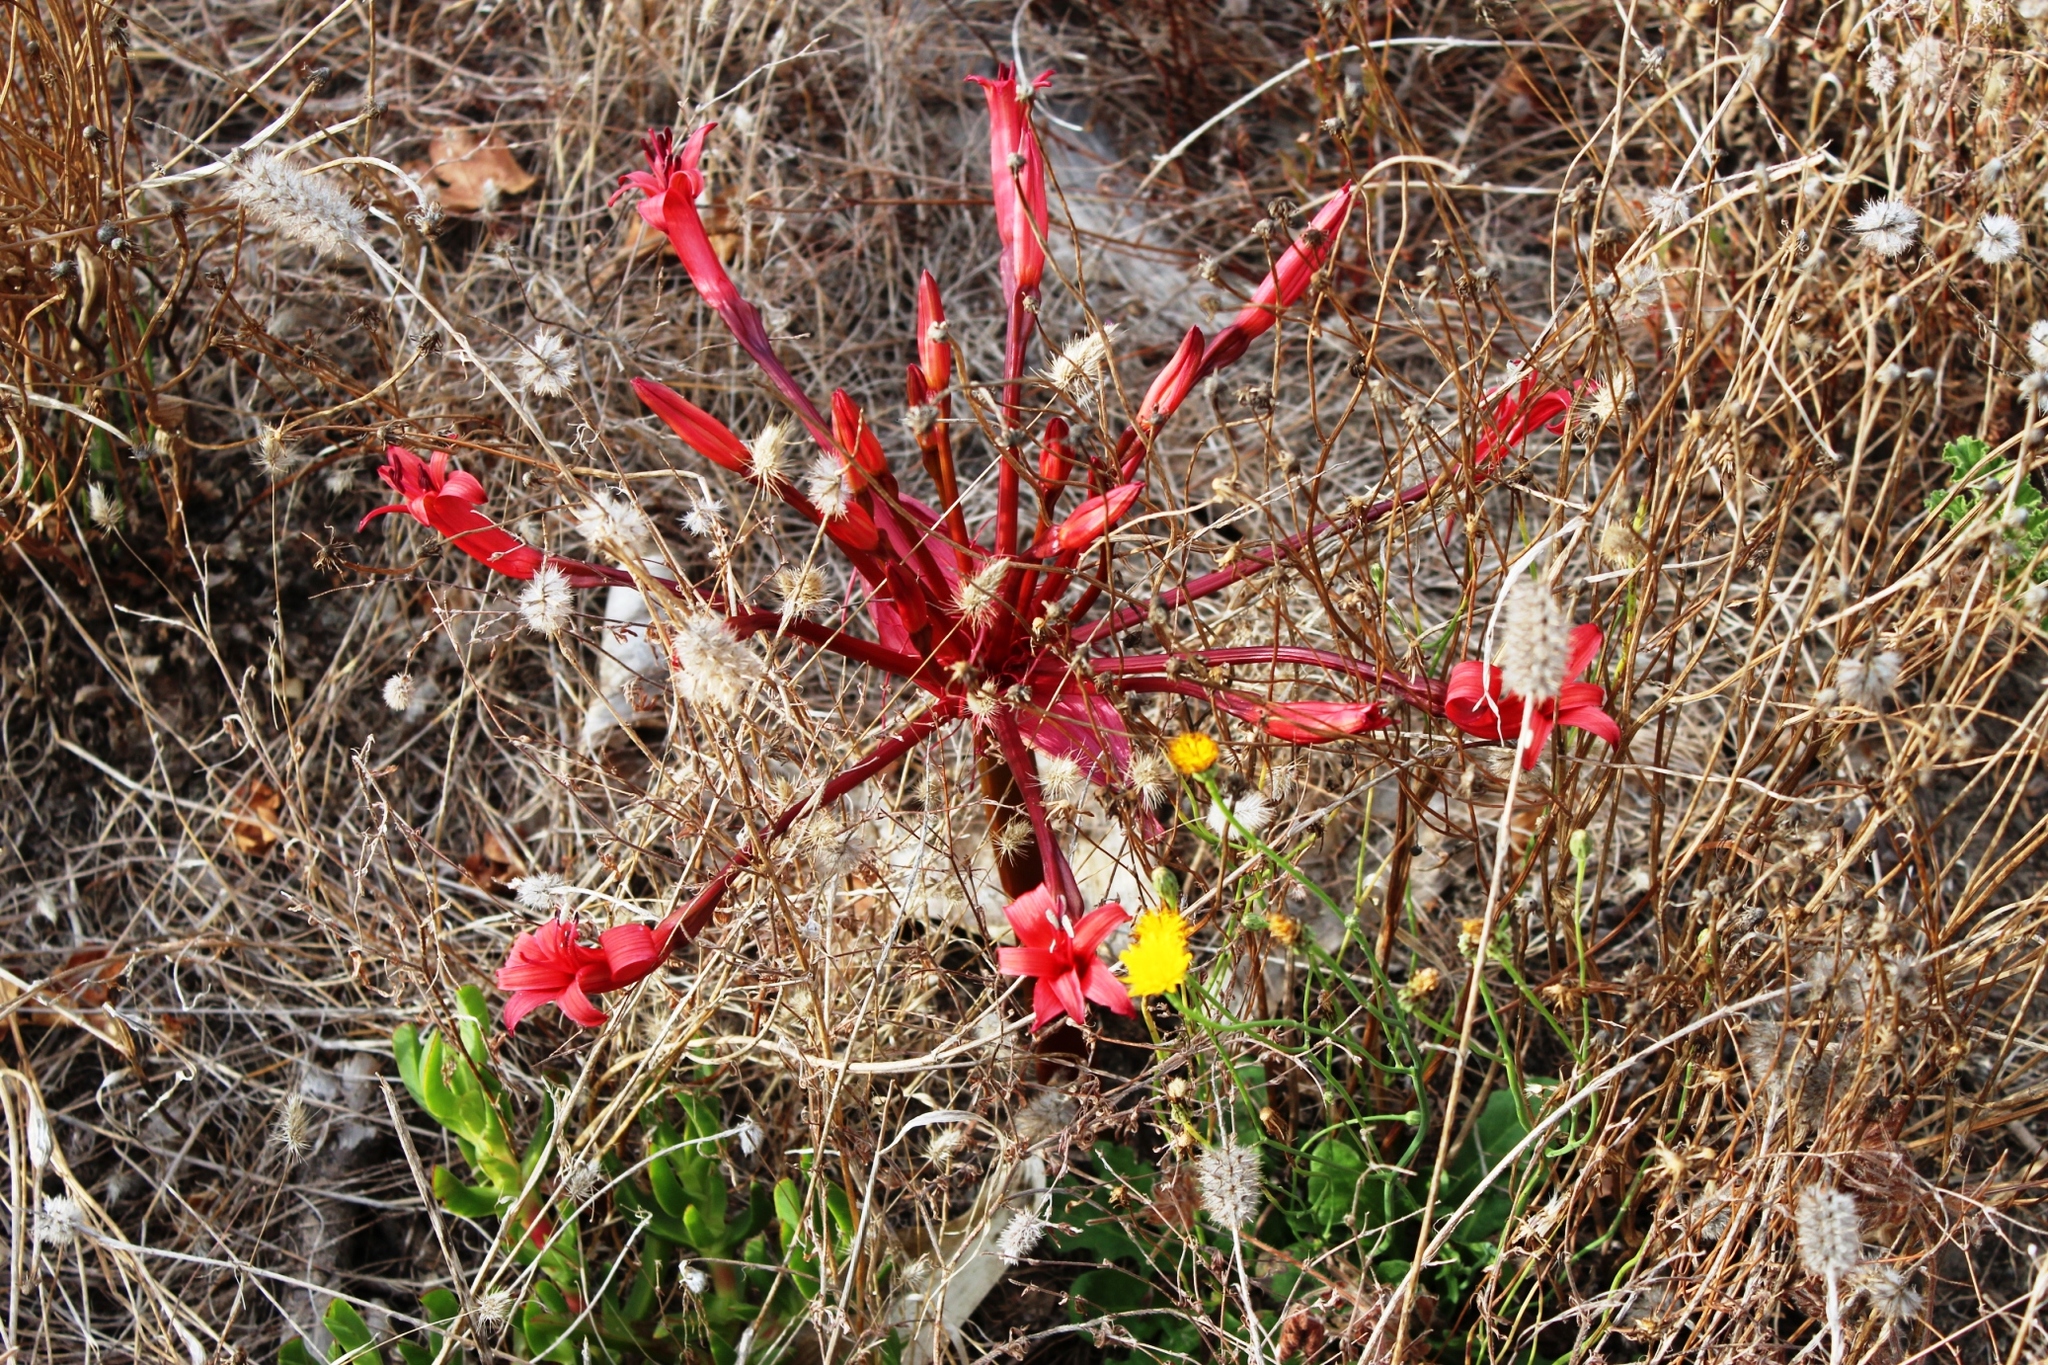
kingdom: Plantae
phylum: Tracheophyta
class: Liliopsida
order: Asparagales
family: Amaryllidaceae
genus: Brunsvigia
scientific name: Brunsvigia orientalis
